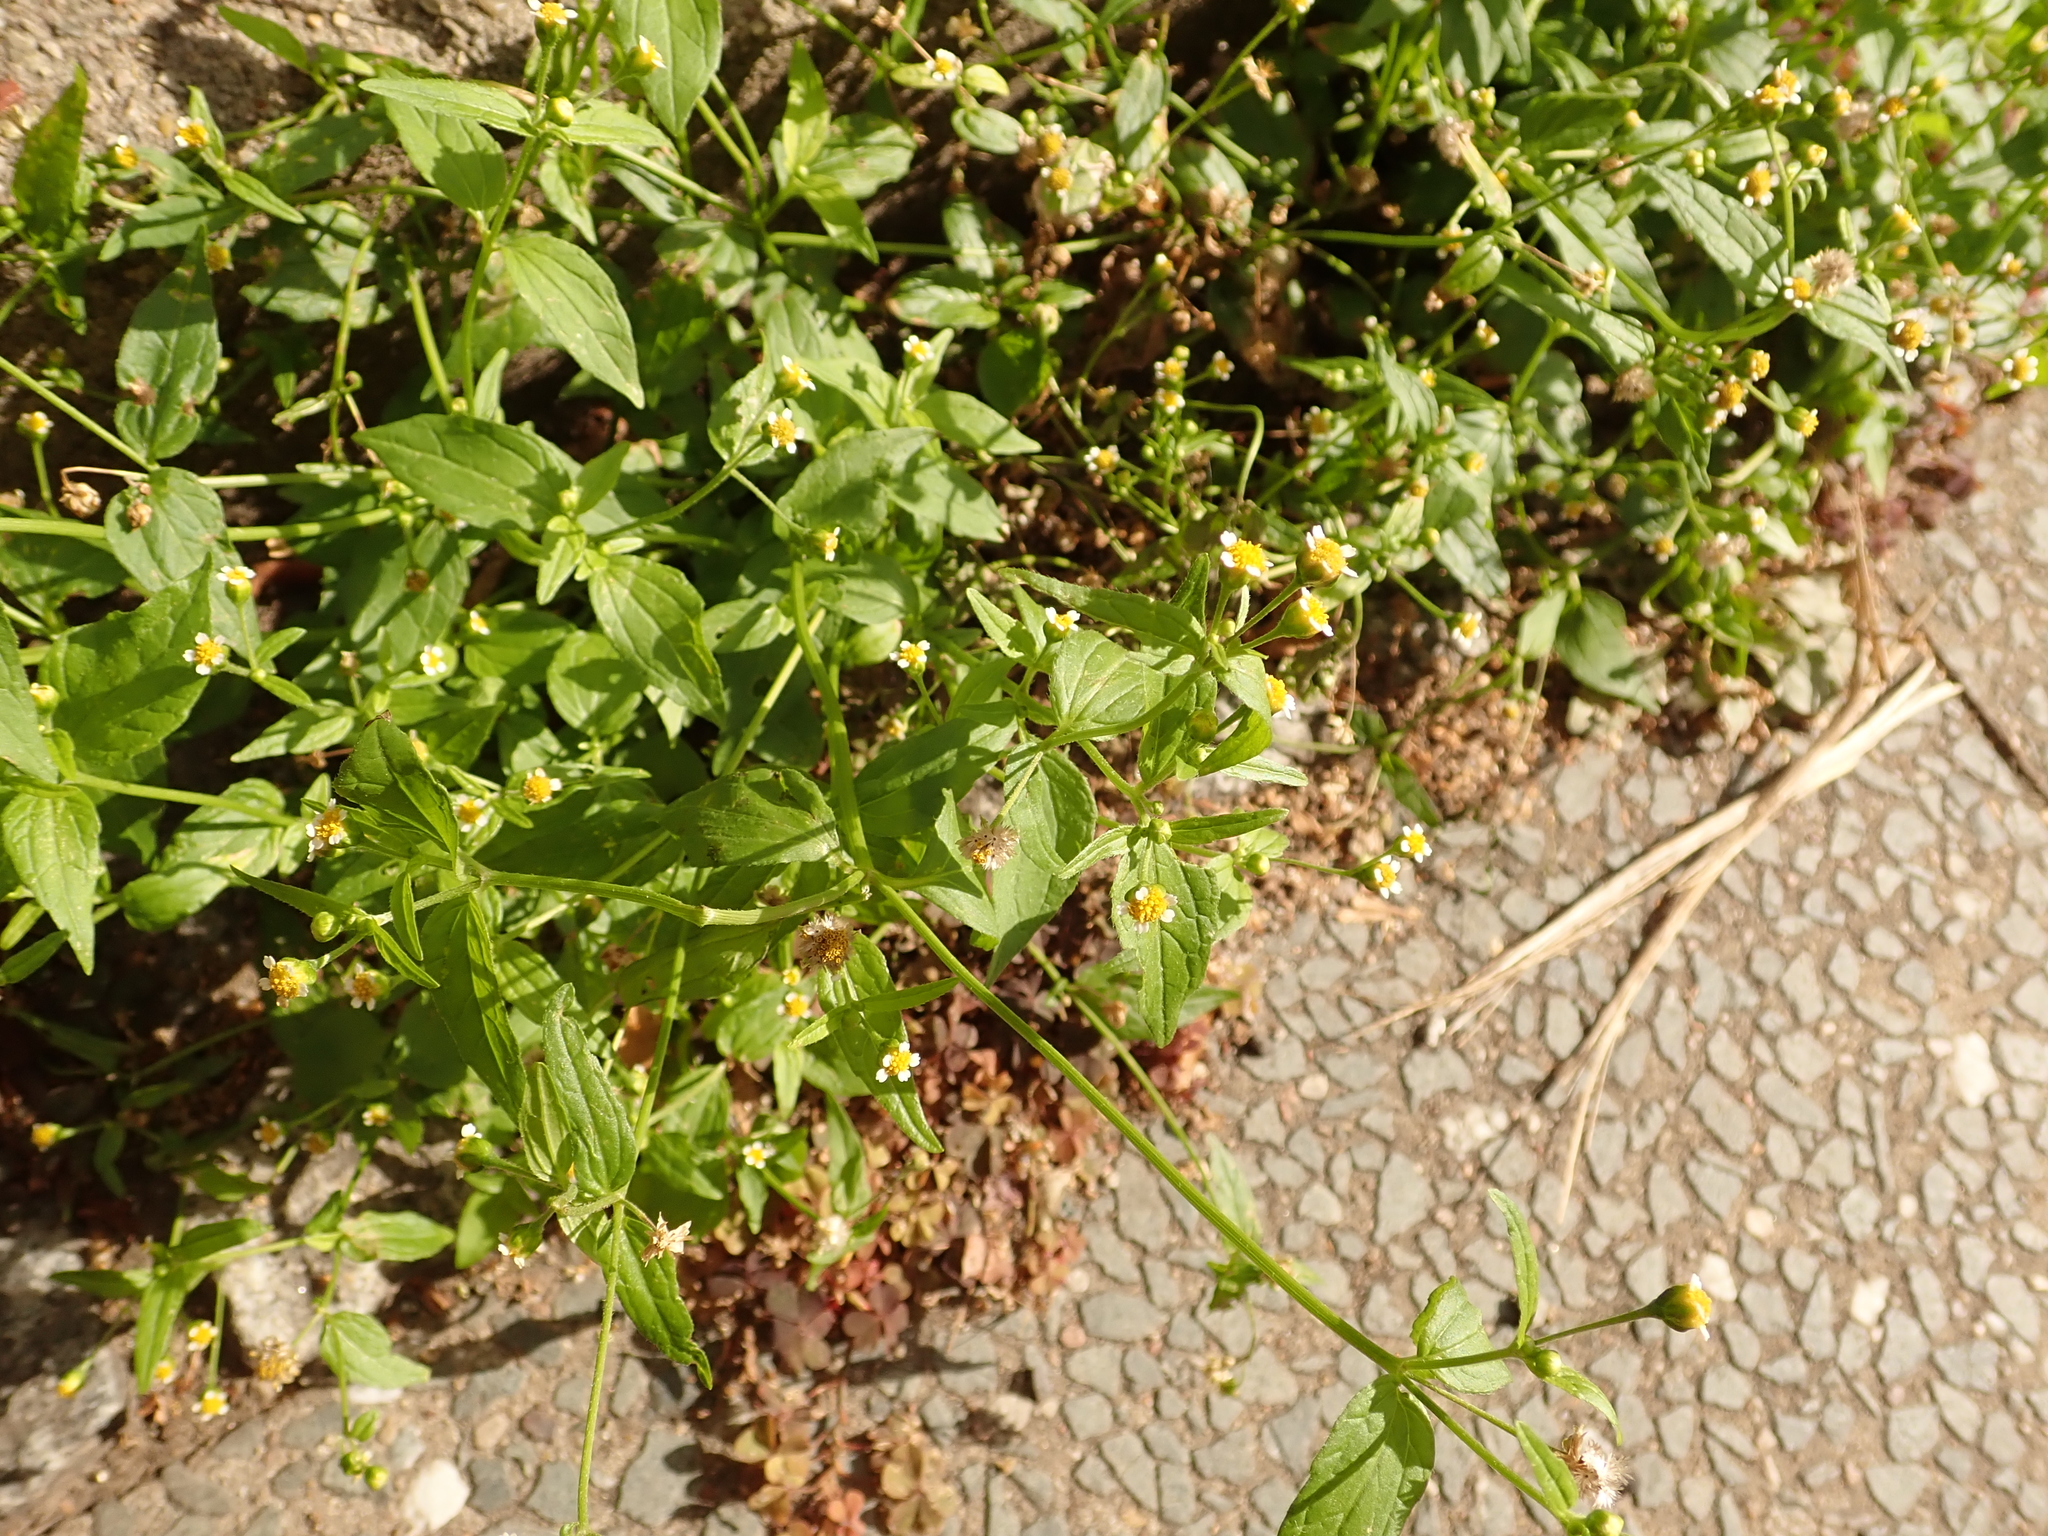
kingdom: Plantae
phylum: Tracheophyta
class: Magnoliopsida
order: Asterales
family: Asteraceae
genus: Galinsoga
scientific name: Galinsoga parviflora
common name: Gallant soldier
